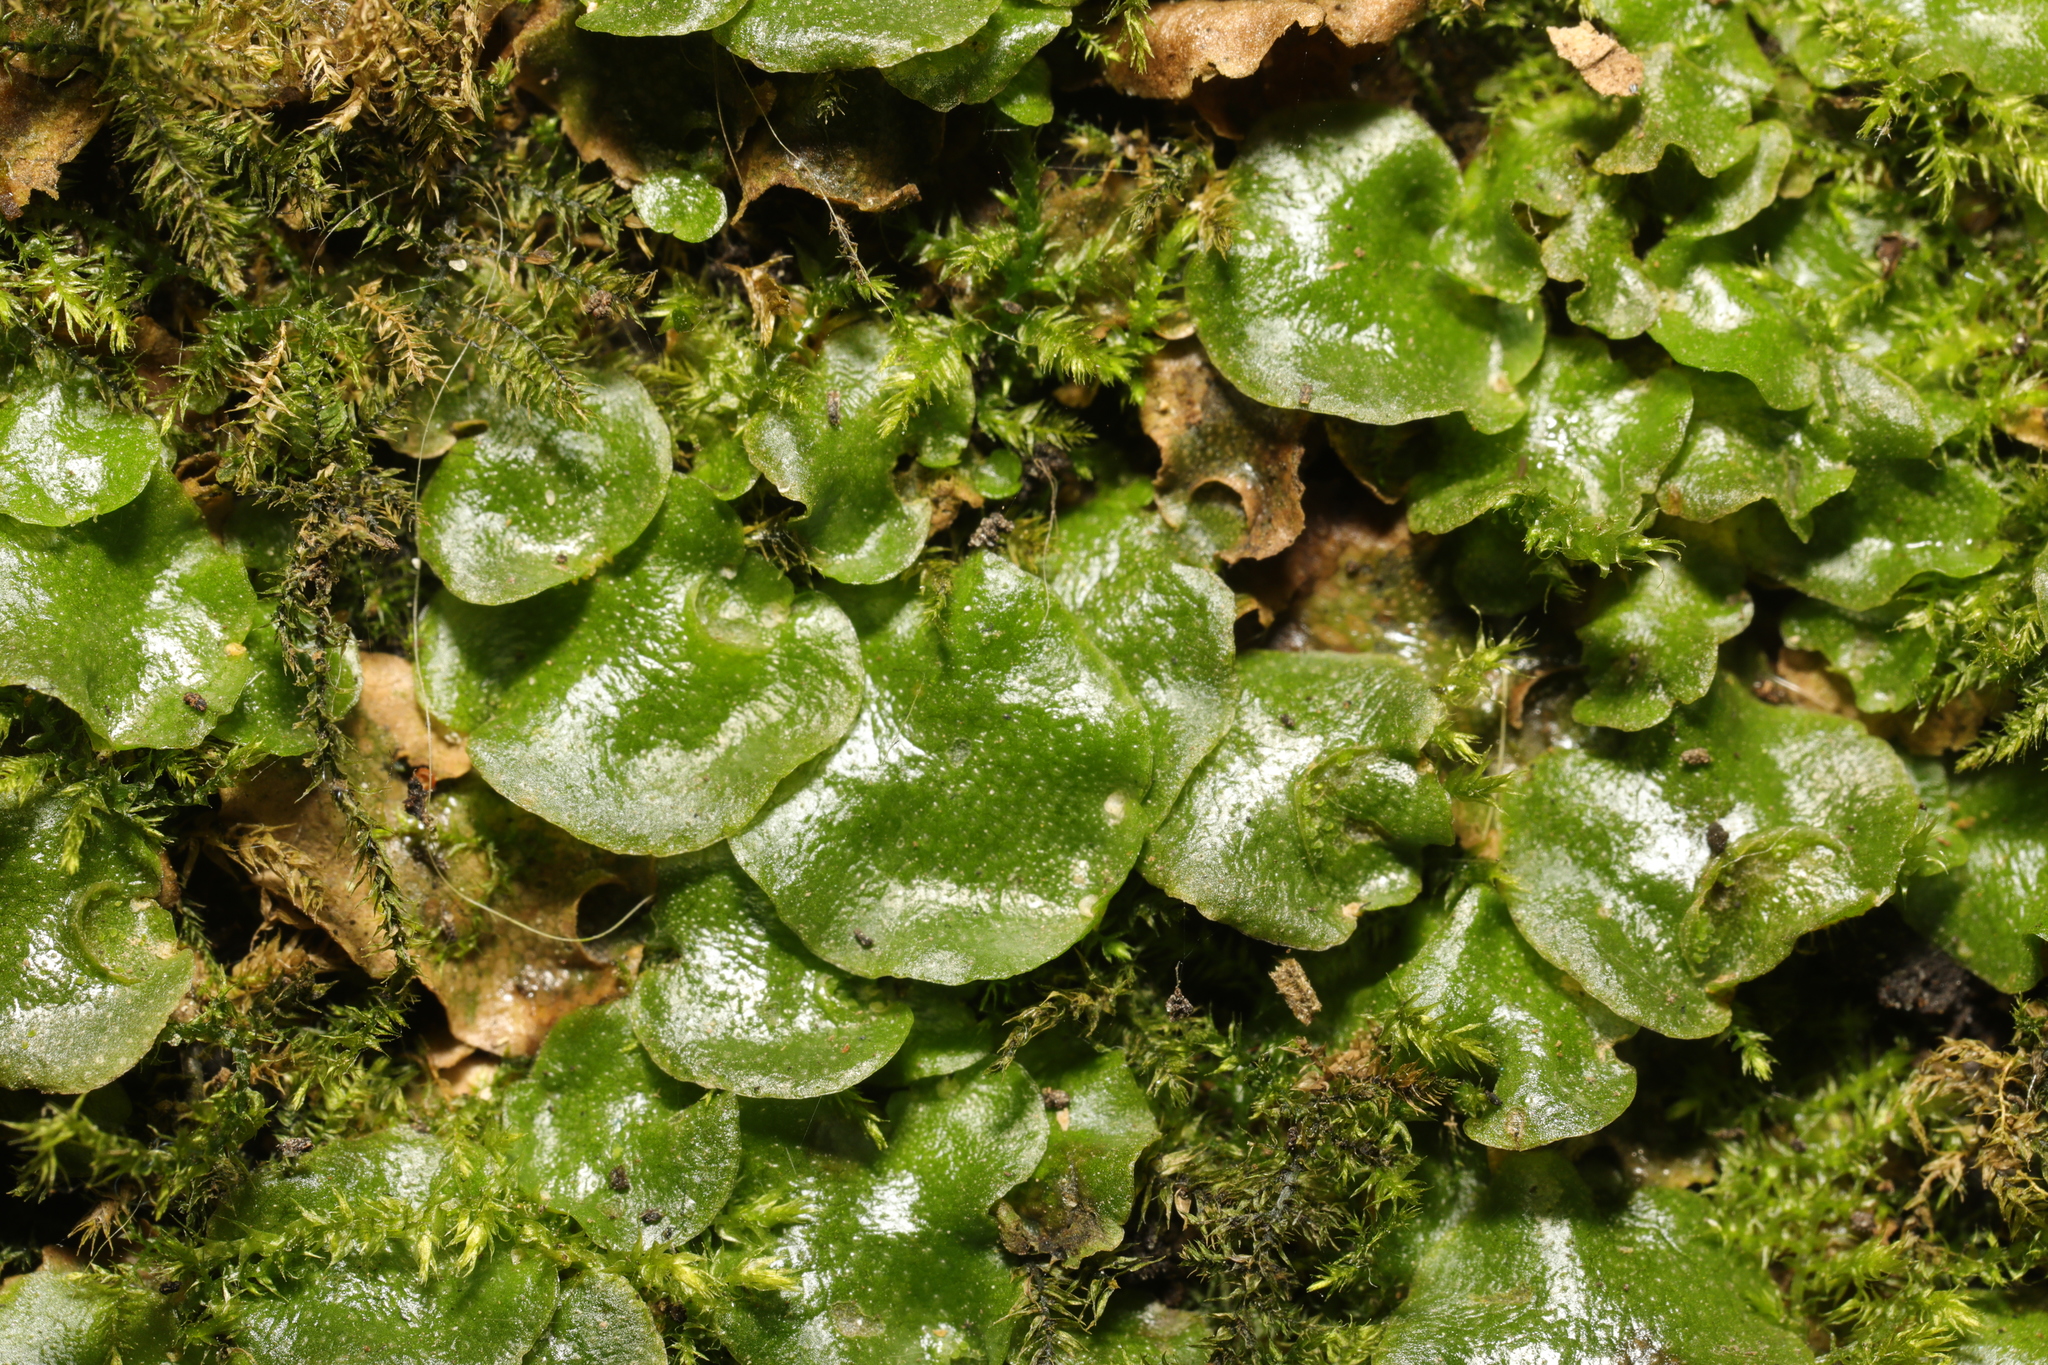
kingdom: Plantae
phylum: Marchantiophyta
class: Marchantiopsida
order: Lunulariales
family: Lunulariaceae
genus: Lunularia
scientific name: Lunularia cruciata
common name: Crescent-cup liverwort
